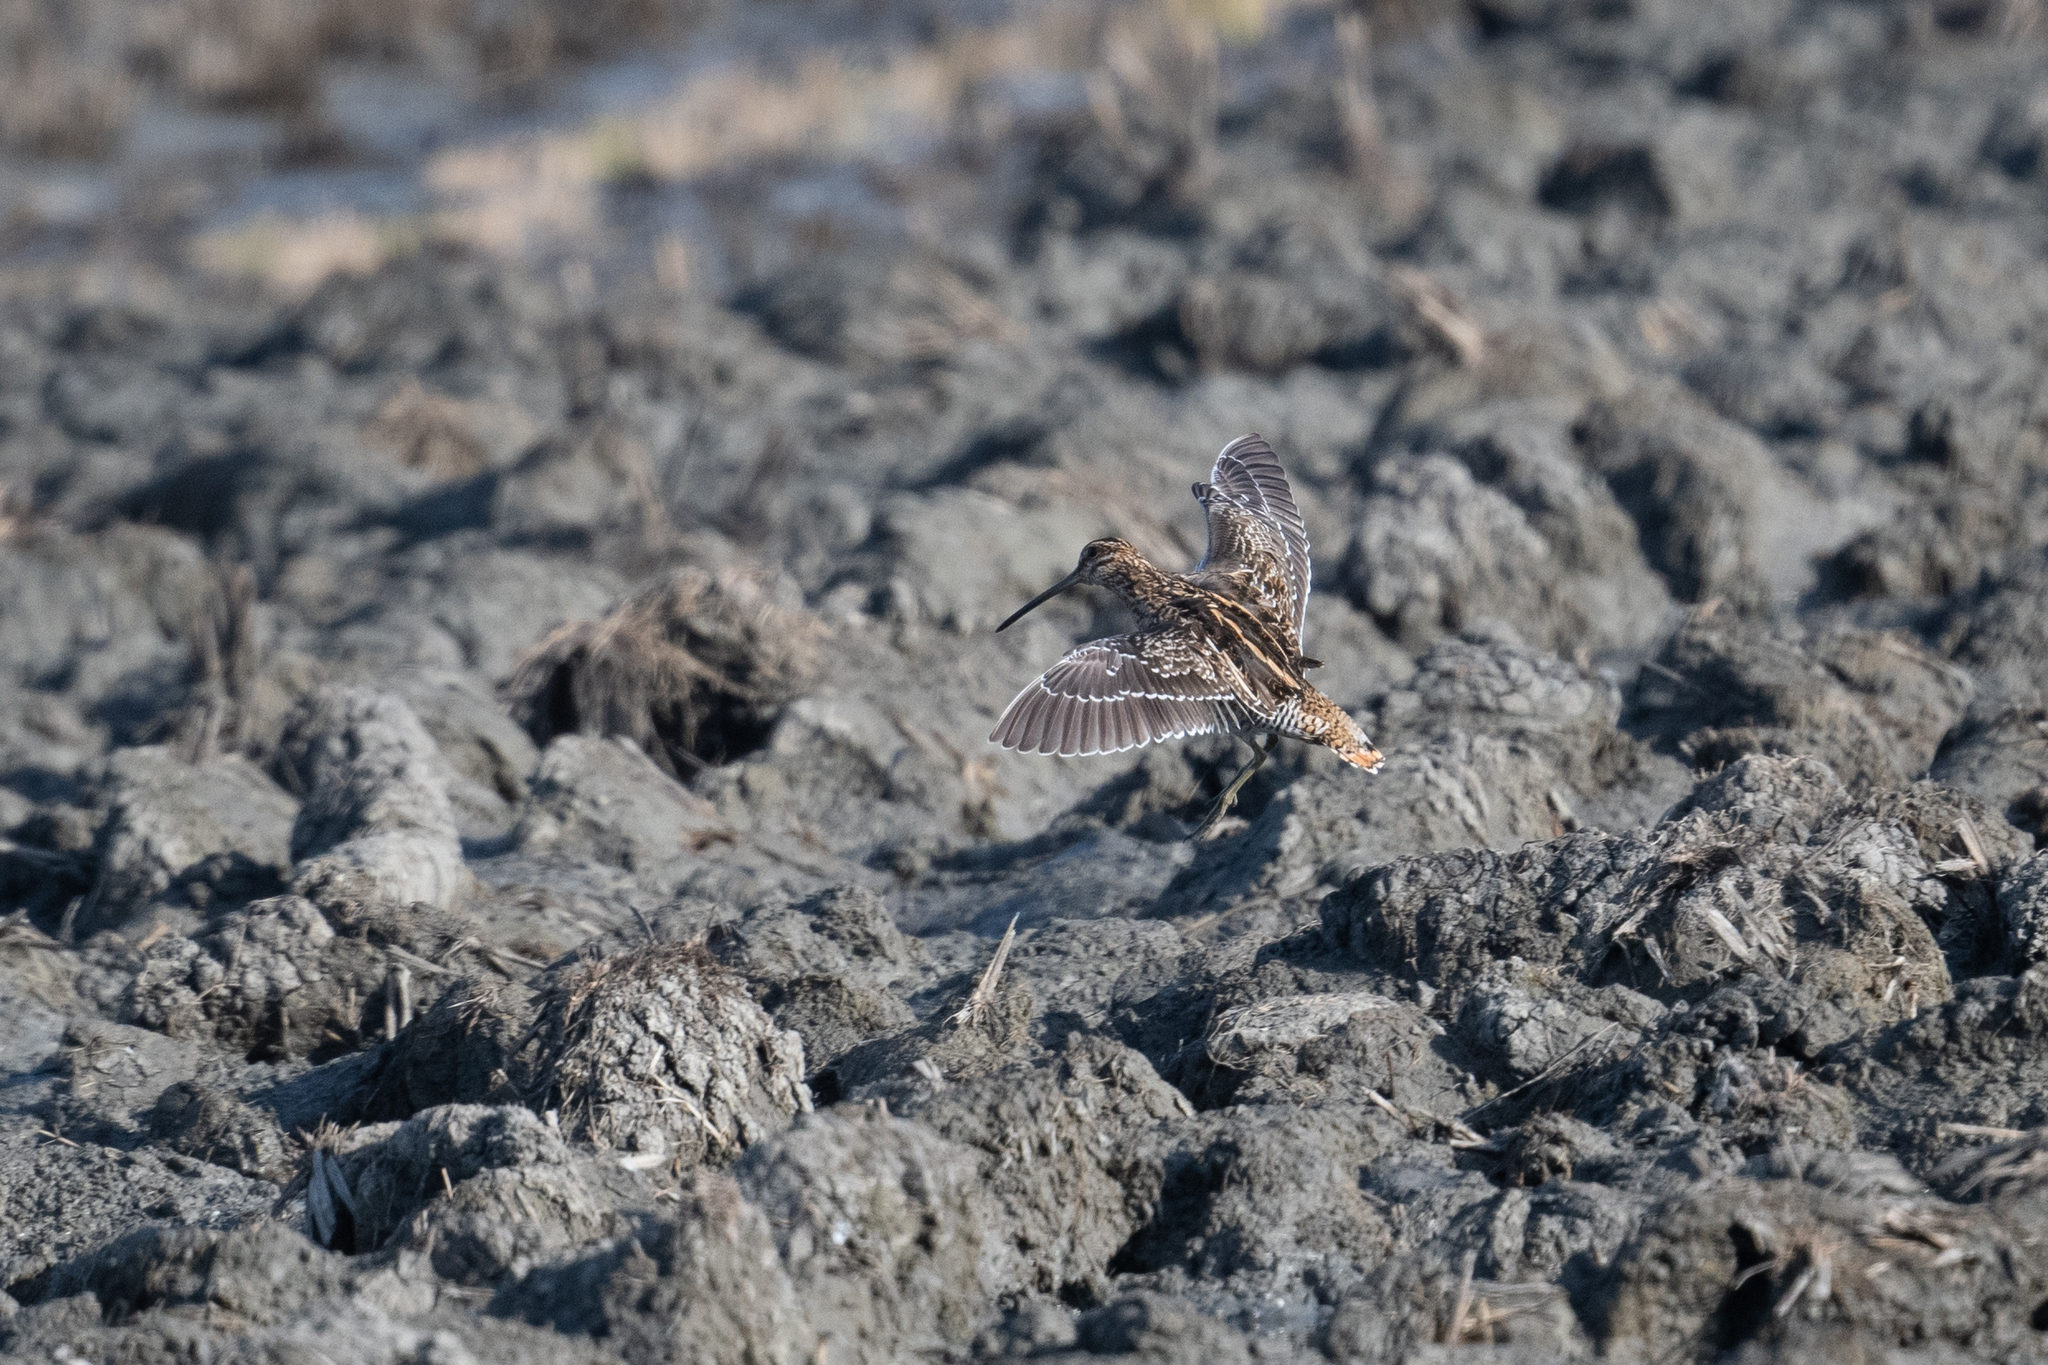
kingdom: Animalia
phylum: Chordata
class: Aves
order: Charadriiformes
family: Scolopacidae
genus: Gallinago
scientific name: Gallinago delicata
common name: Wilson's snipe
